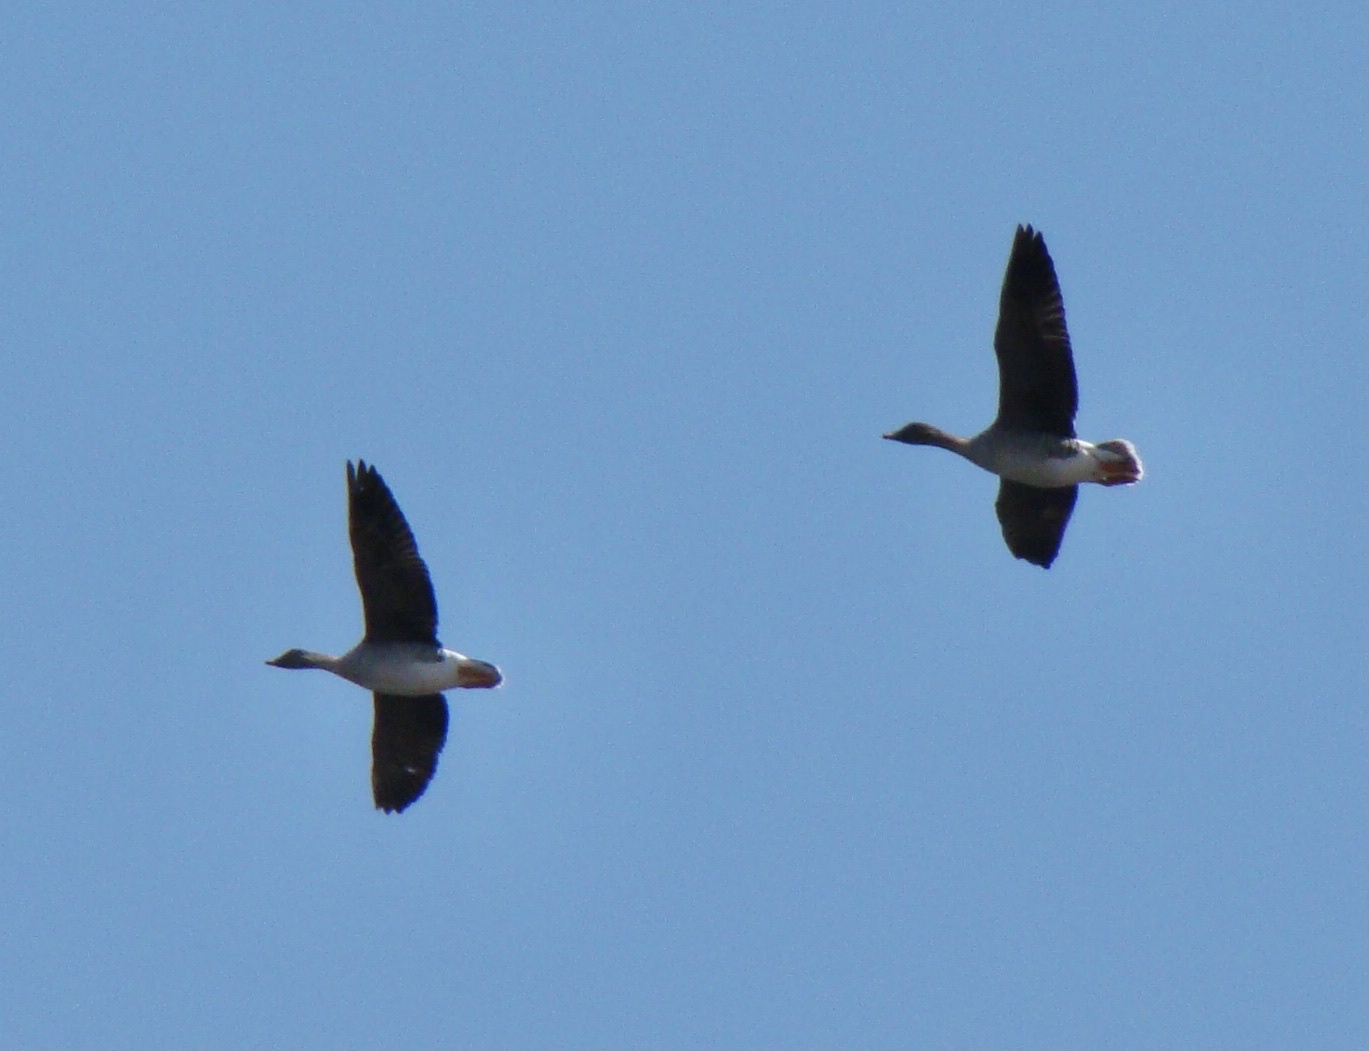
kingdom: Animalia
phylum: Chordata
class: Aves
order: Anseriformes
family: Anatidae
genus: Anser
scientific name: Anser serrirostris
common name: Tundra bean goose
